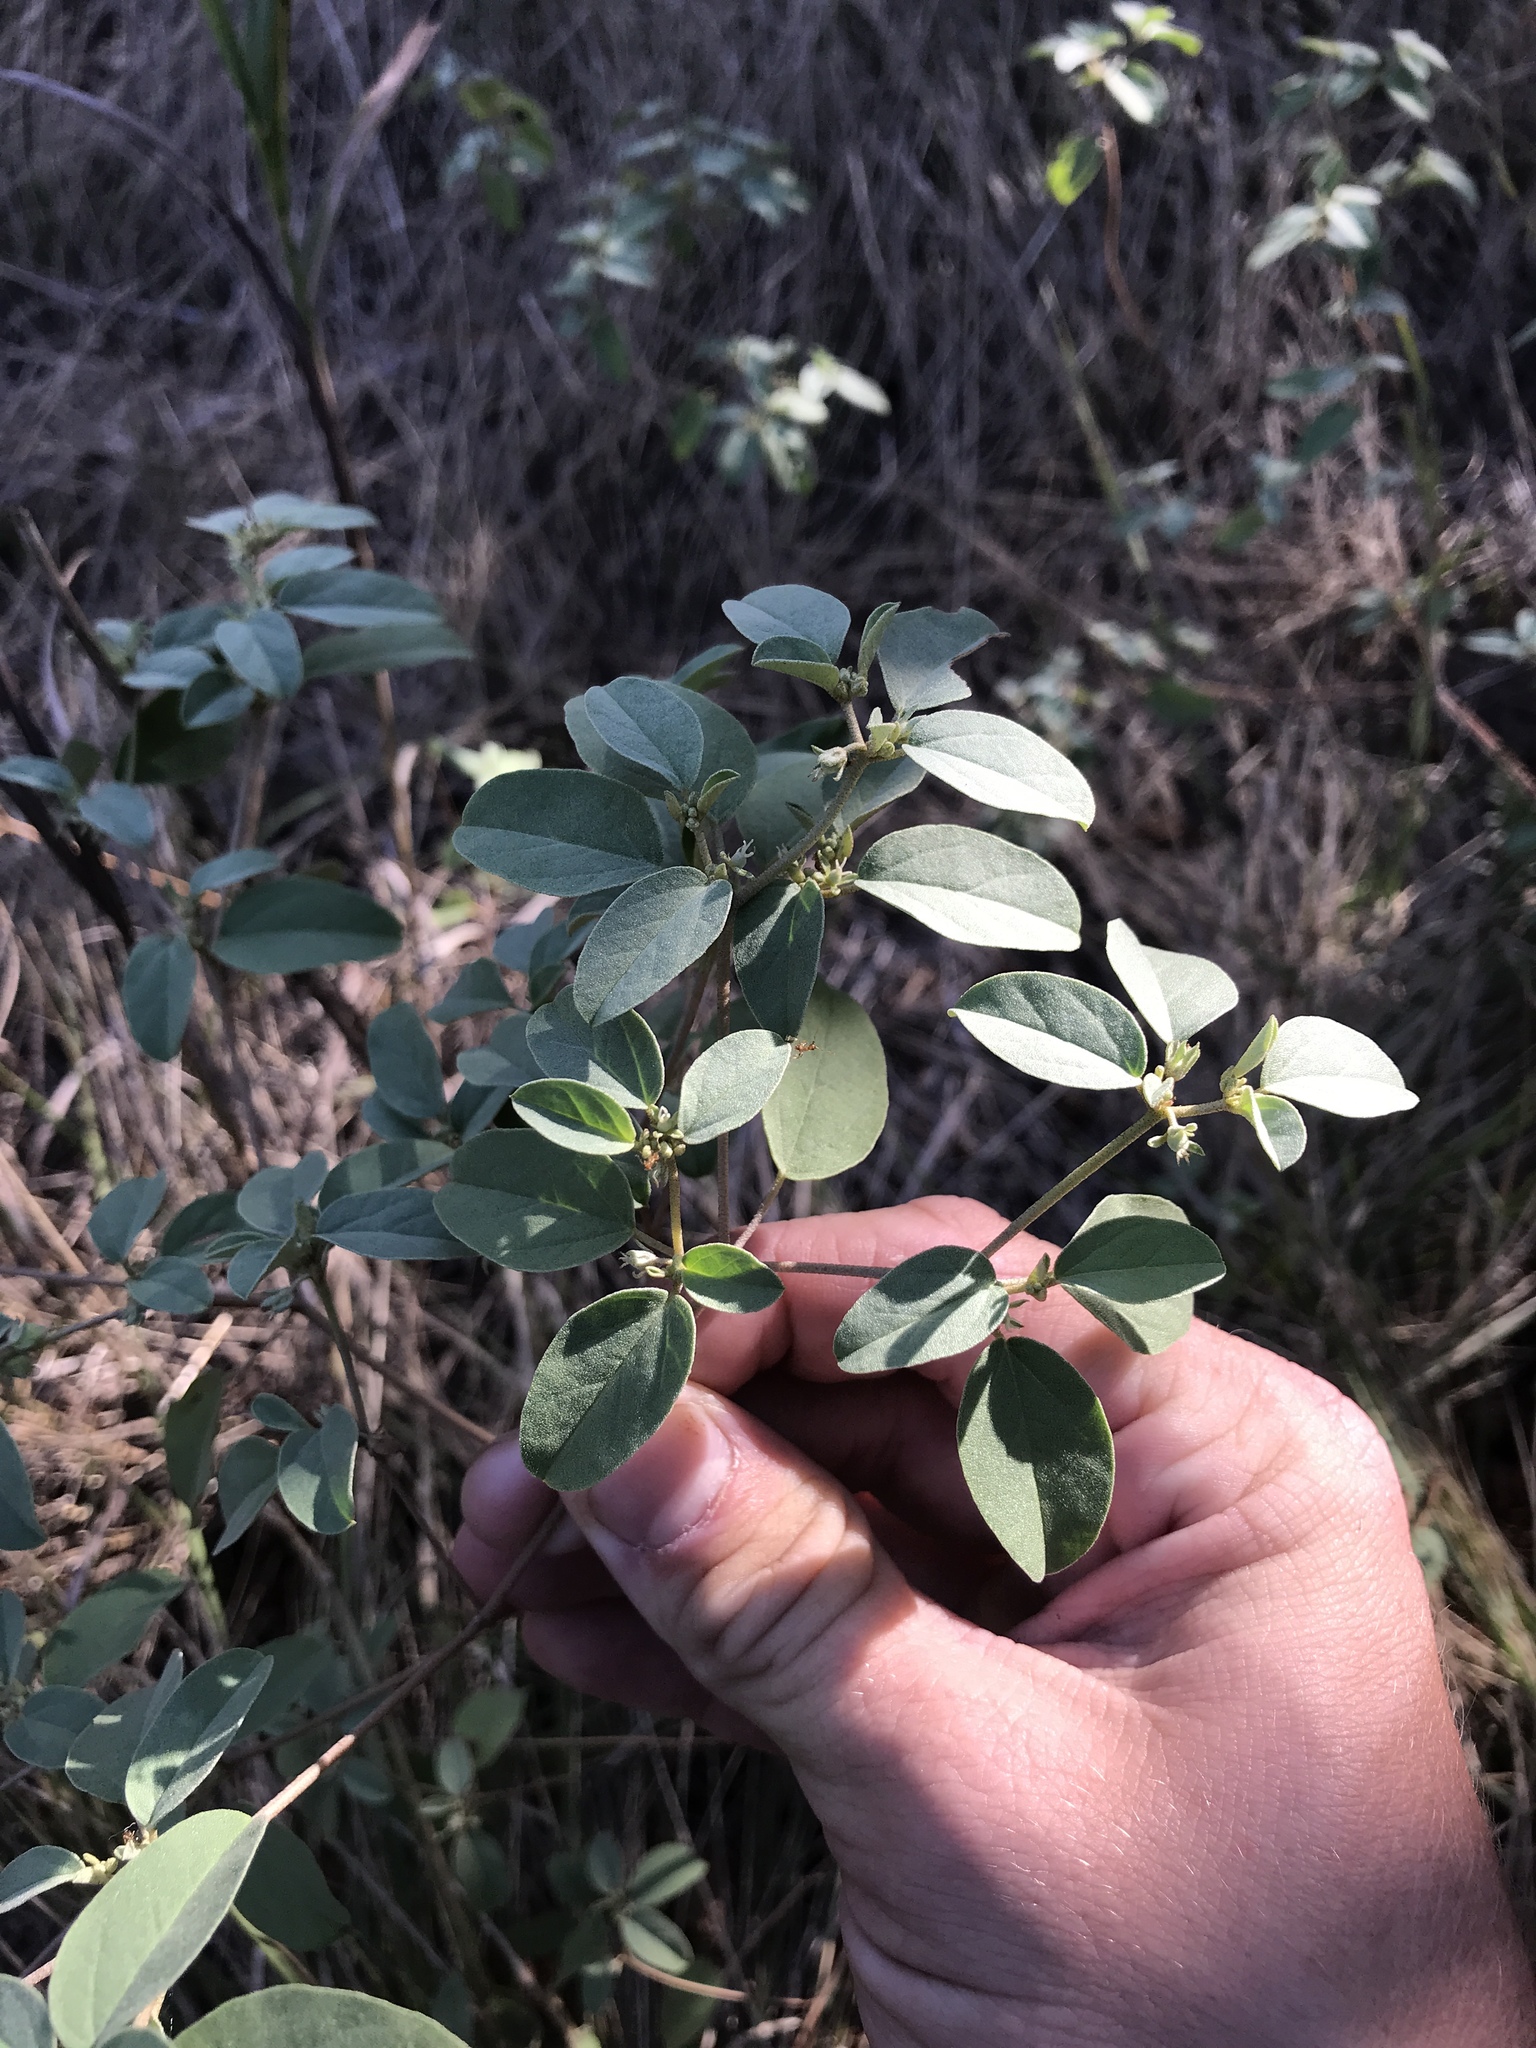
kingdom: Plantae
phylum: Tracheophyta
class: Magnoliopsida
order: Malpighiales
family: Euphorbiaceae
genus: Croton
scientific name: Croton monanthogynus
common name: One-seed croton
